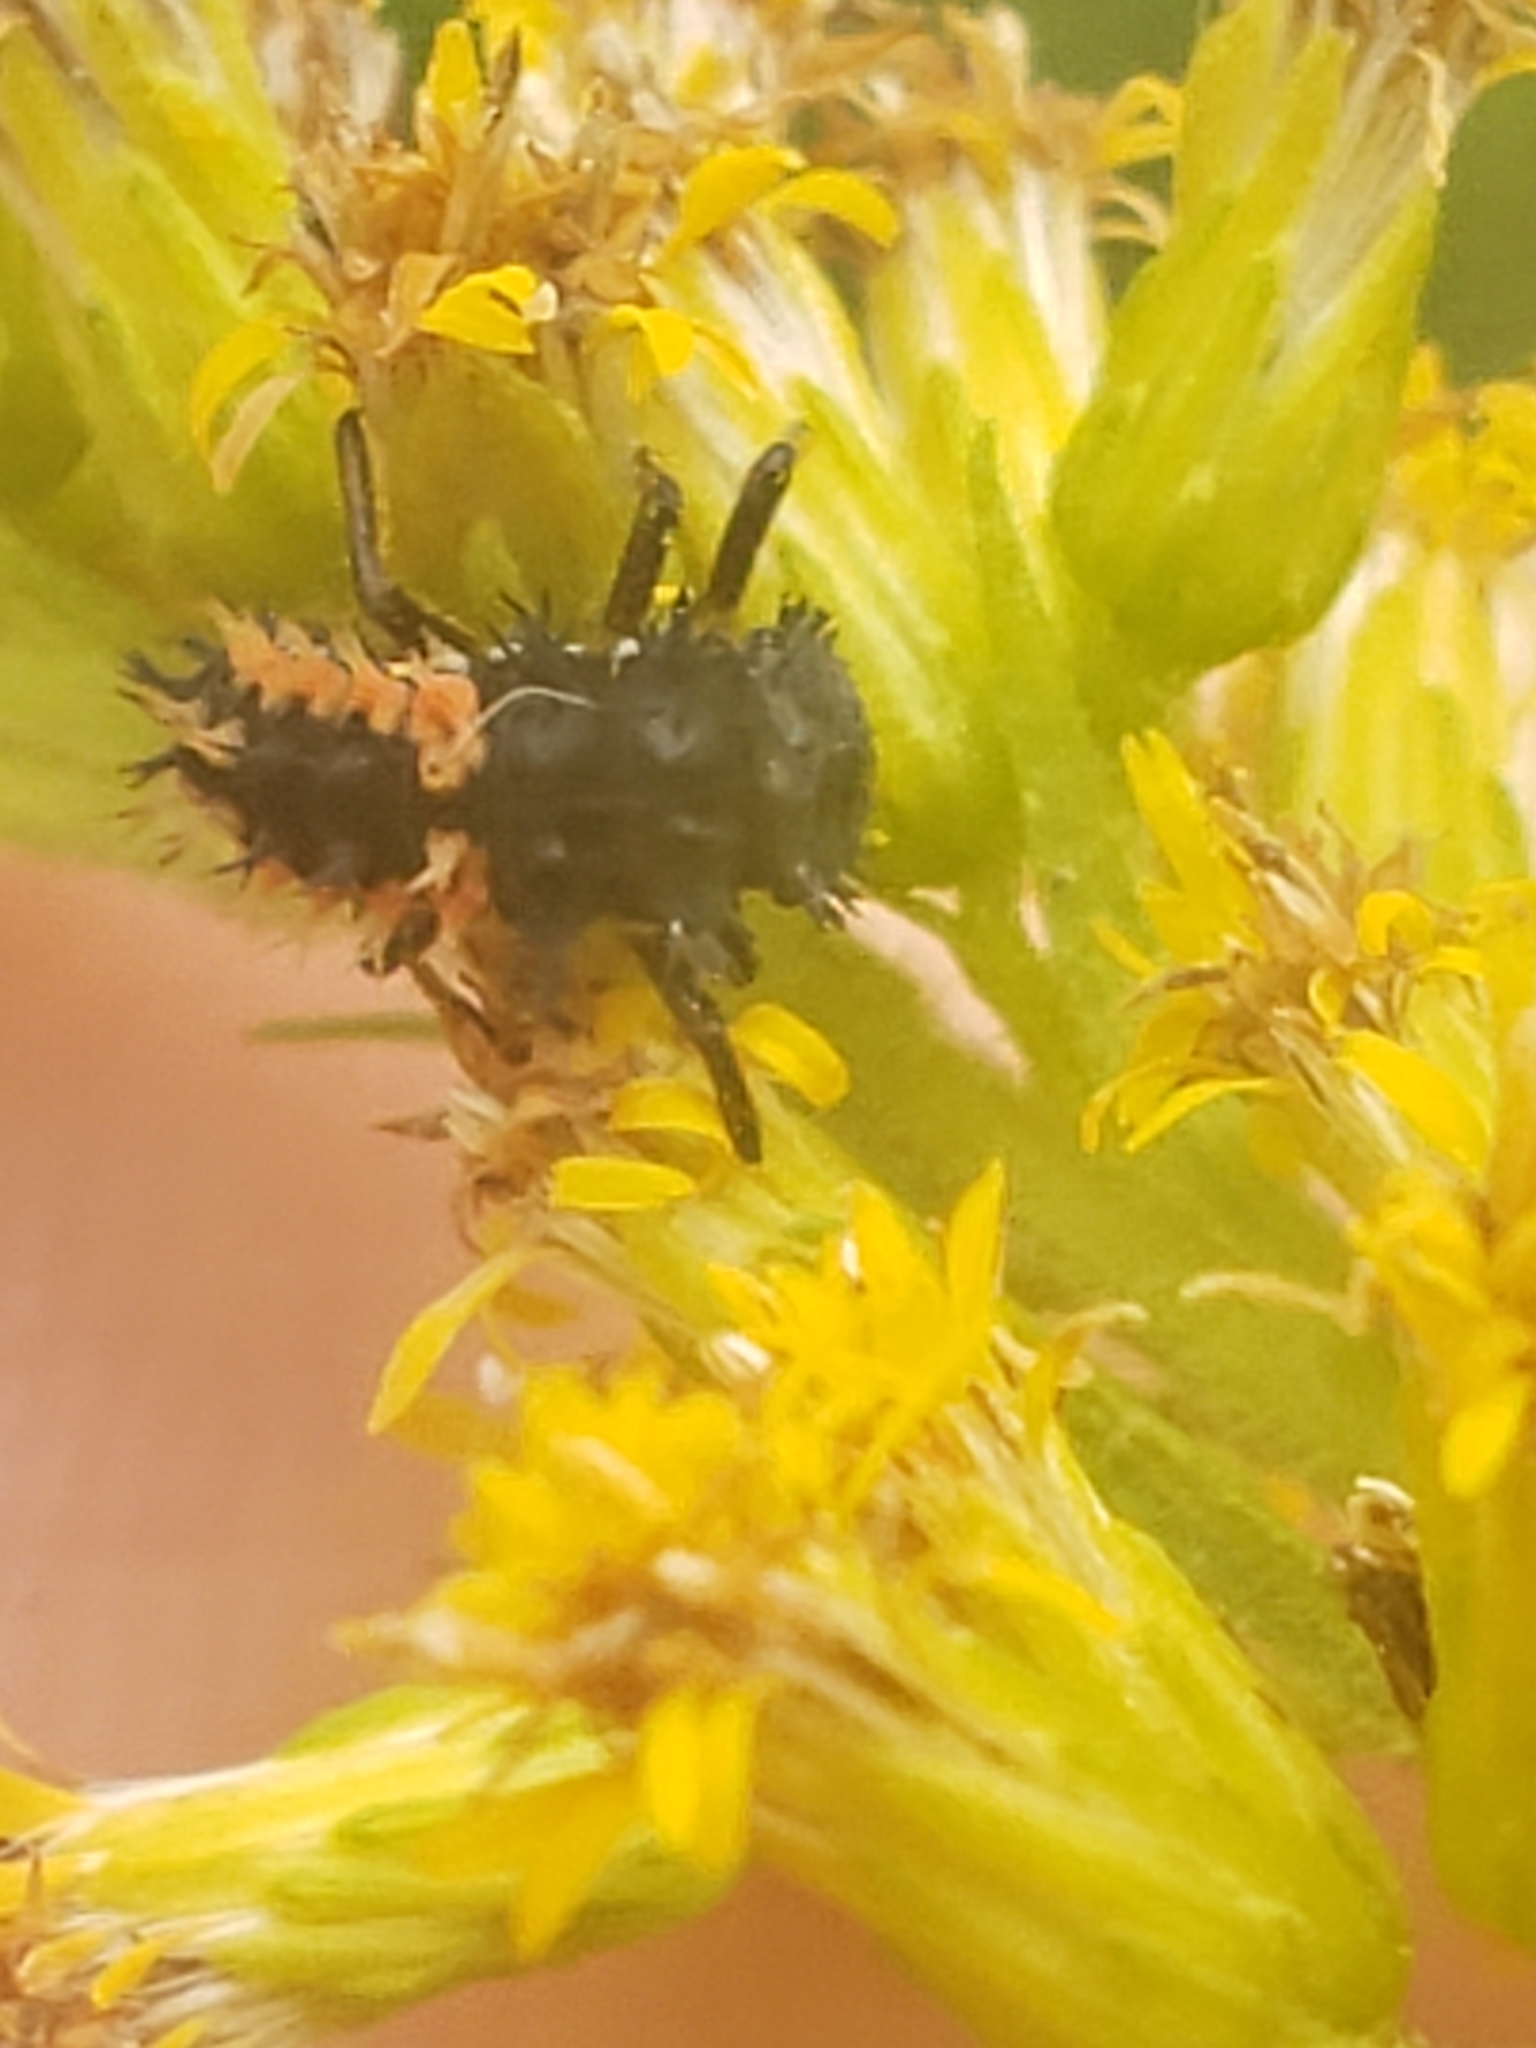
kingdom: Animalia
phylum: Arthropoda
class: Insecta
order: Coleoptera
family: Coccinellidae
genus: Harmonia
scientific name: Harmonia axyridis
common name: Harlequin ladybird
